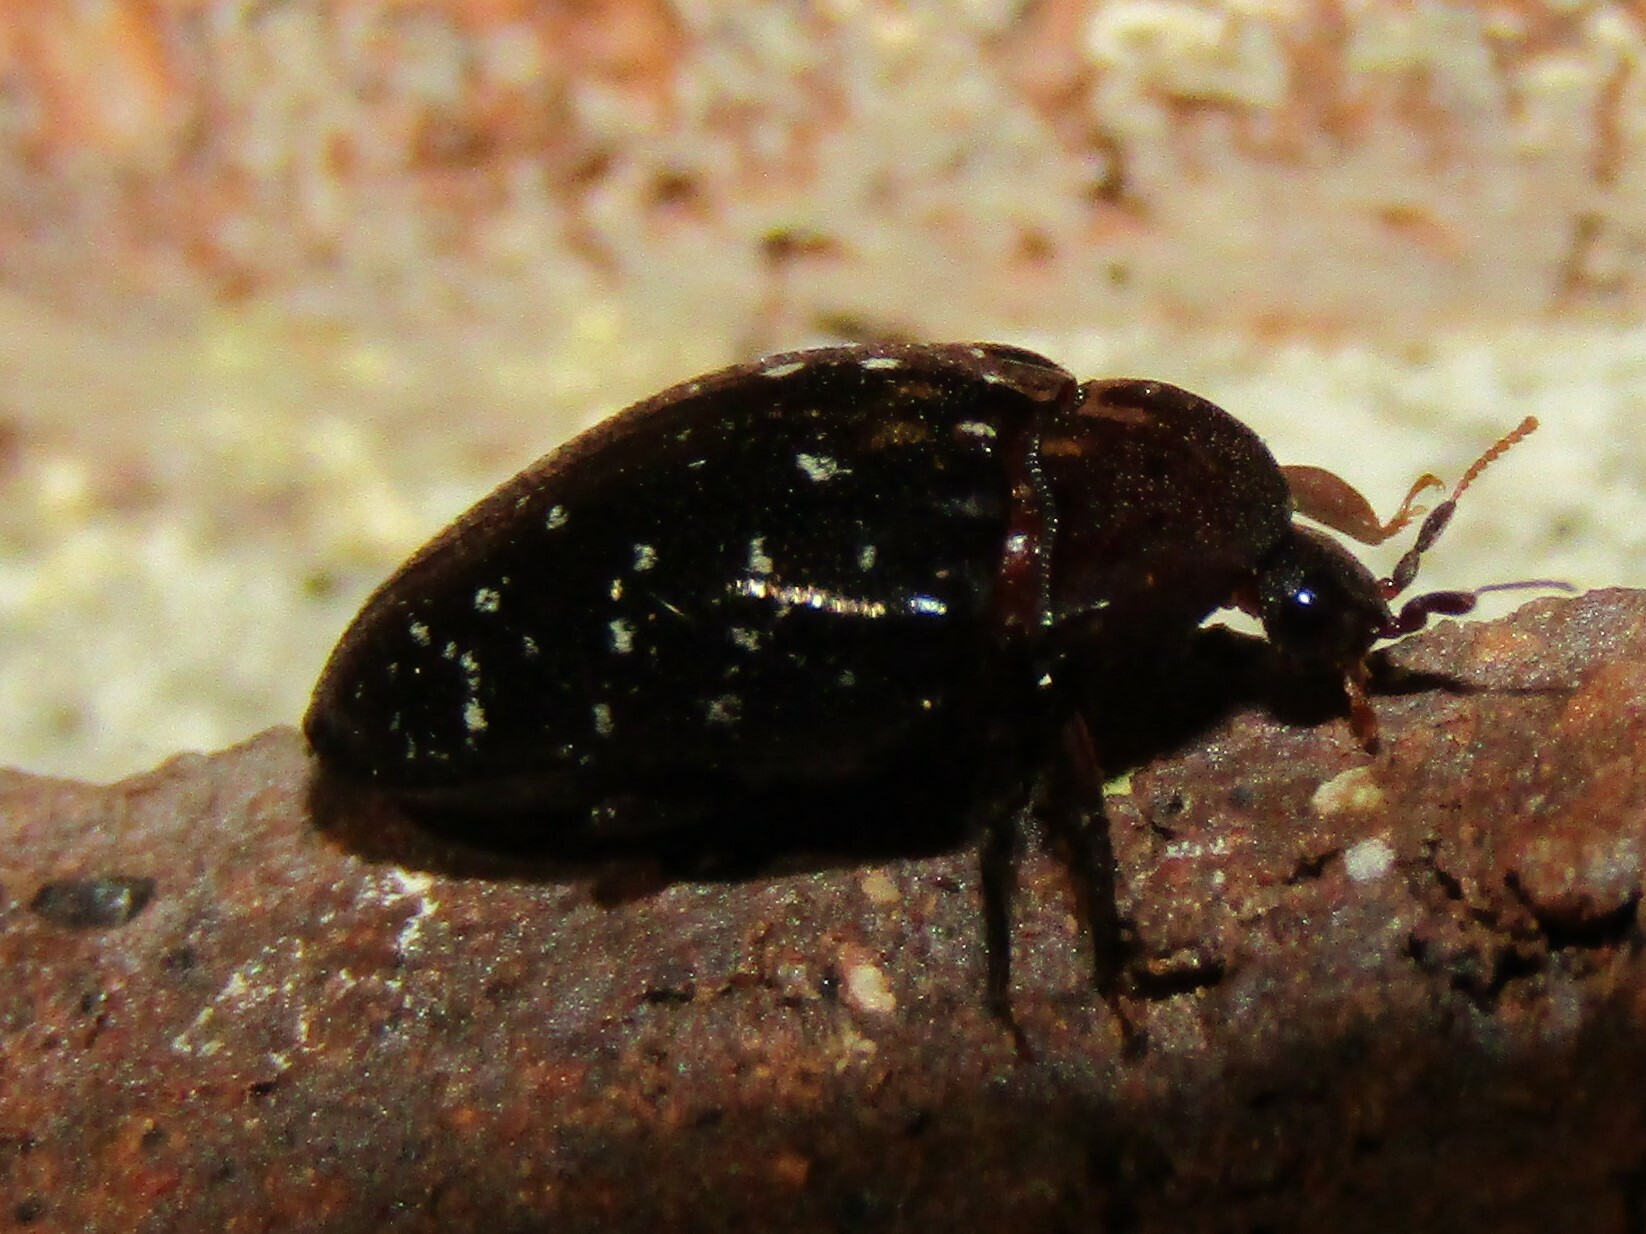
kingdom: Animalia
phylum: Arthropoda
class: Insecta
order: Coleoptera
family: Chelonariidae
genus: Chelonarium
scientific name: Chelonarium lecontei
